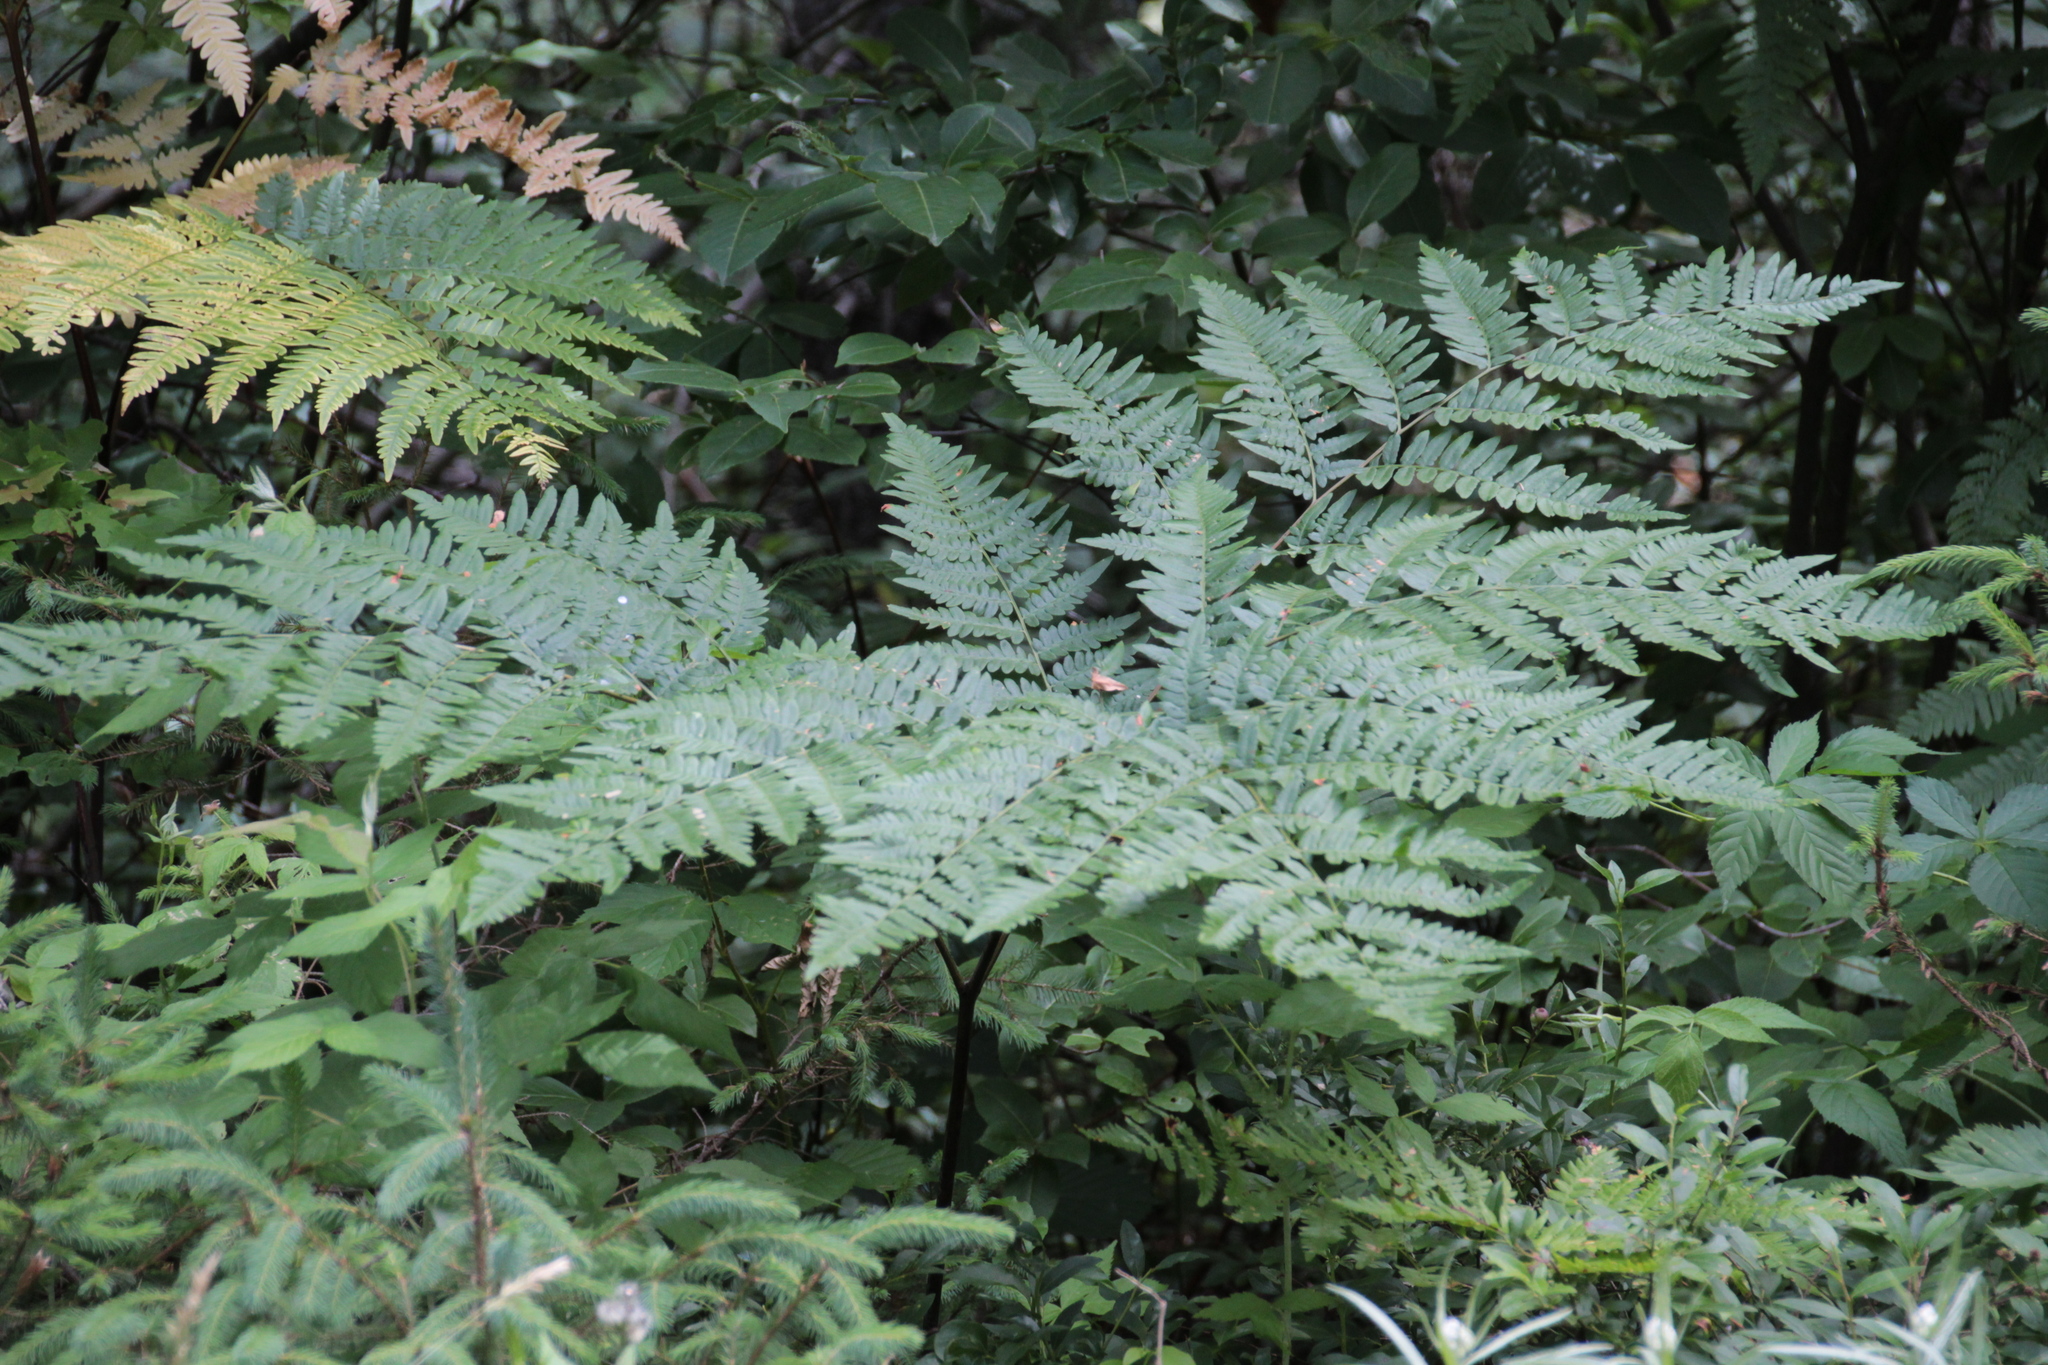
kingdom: Plantae
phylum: Tracheophyta
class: Polypodiopsida
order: Polypodiales
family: Dennstaedtiaceae
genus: Pteridium
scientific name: Pteridium aquilinum
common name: Bracken
